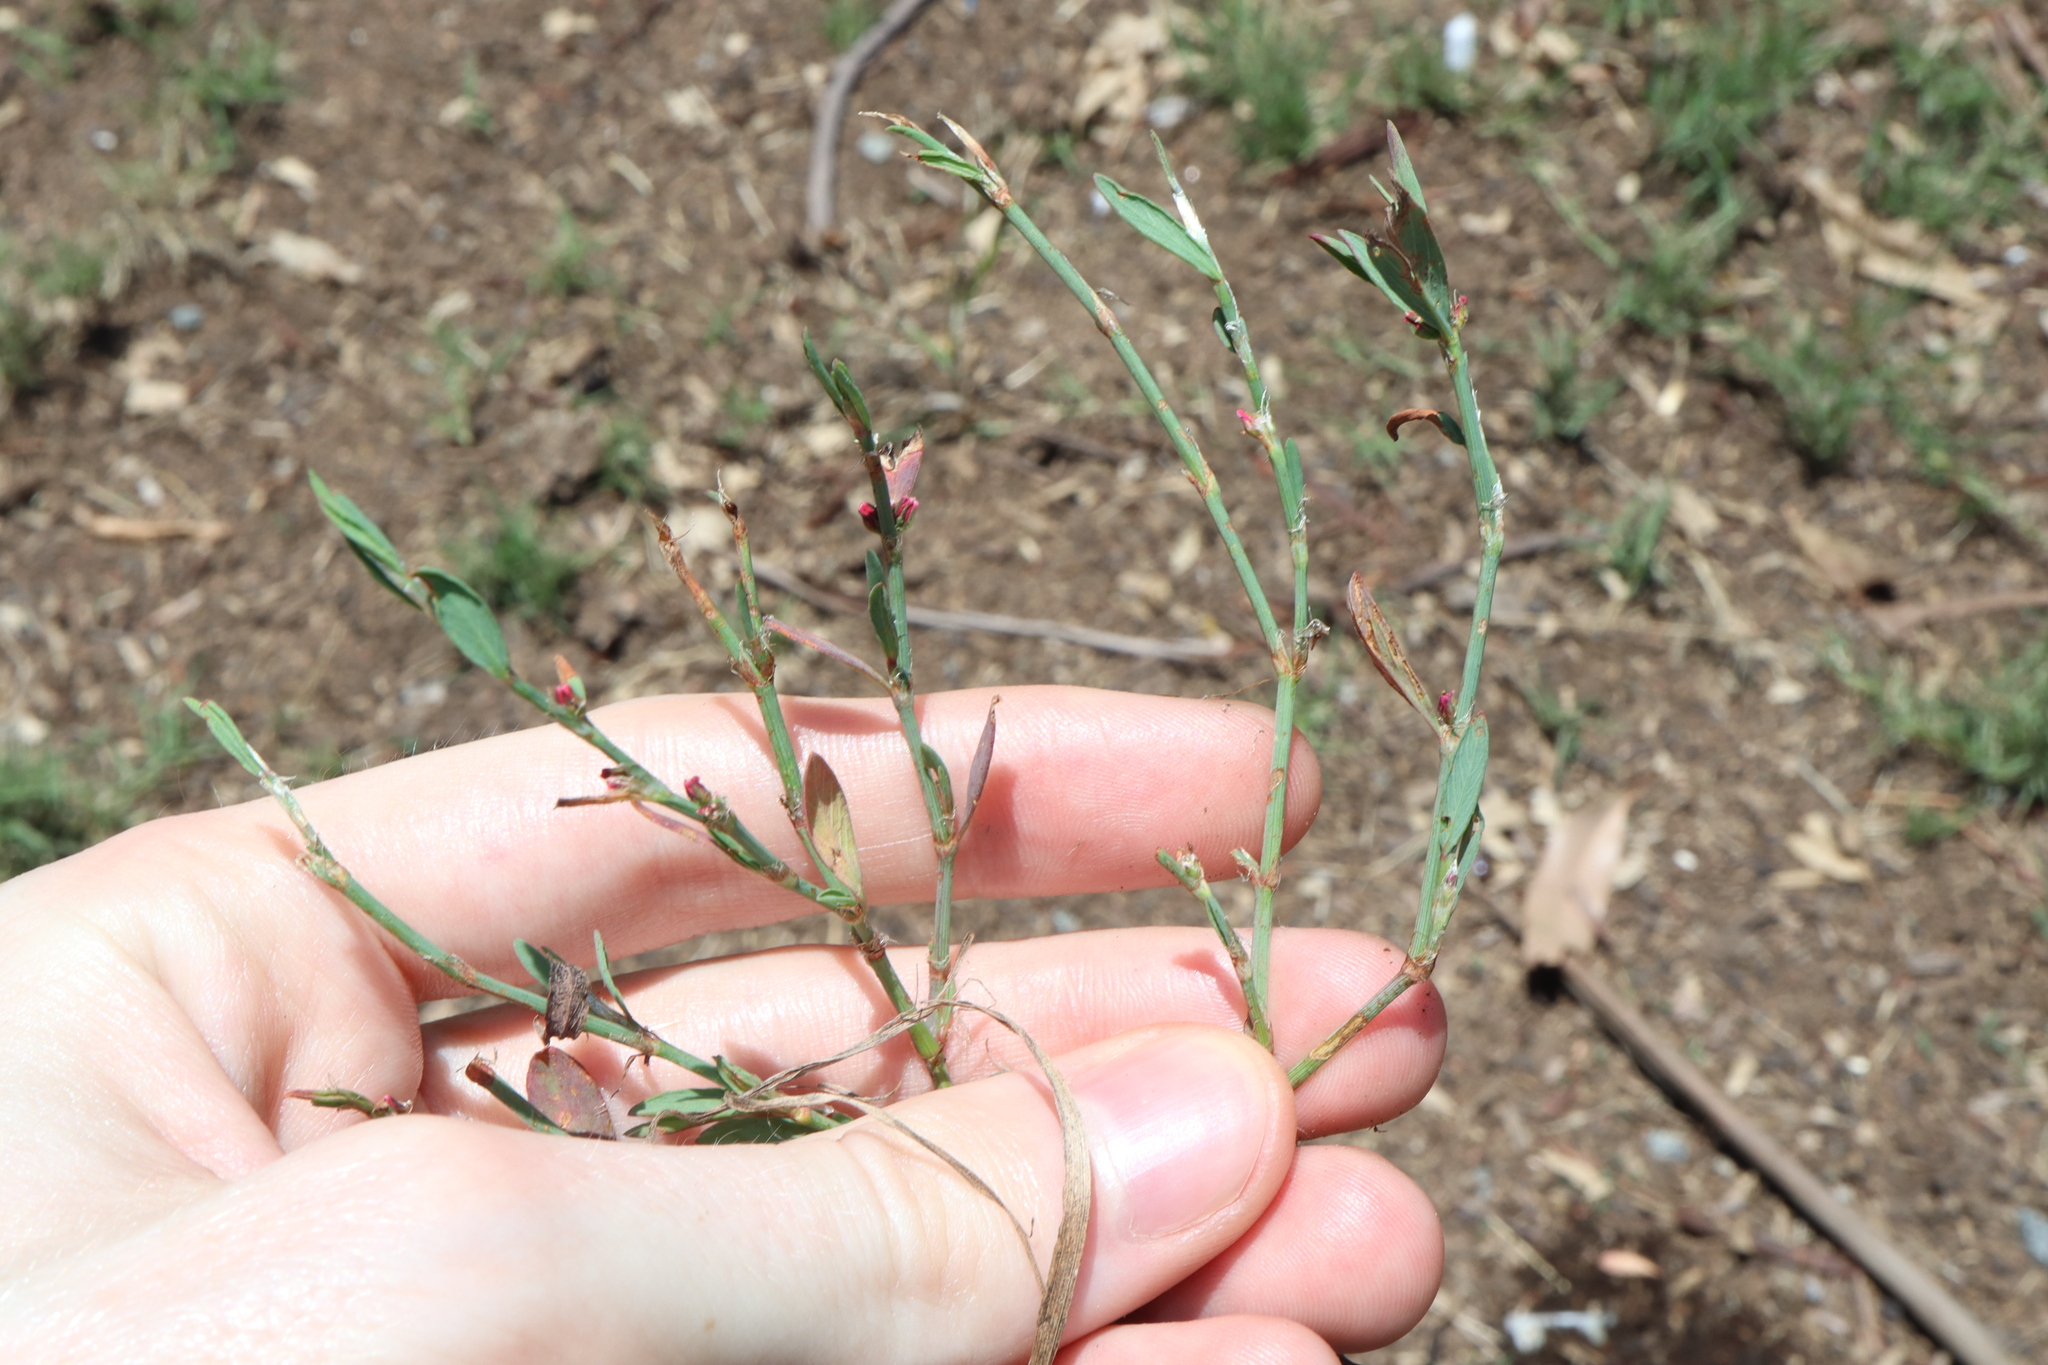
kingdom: Plantae
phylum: Tracheophyta
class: Magnoliopsida
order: Brassicales
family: Brassicaceae
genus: Raphanus
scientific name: Raphanus raphanistrum
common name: Wild radish
